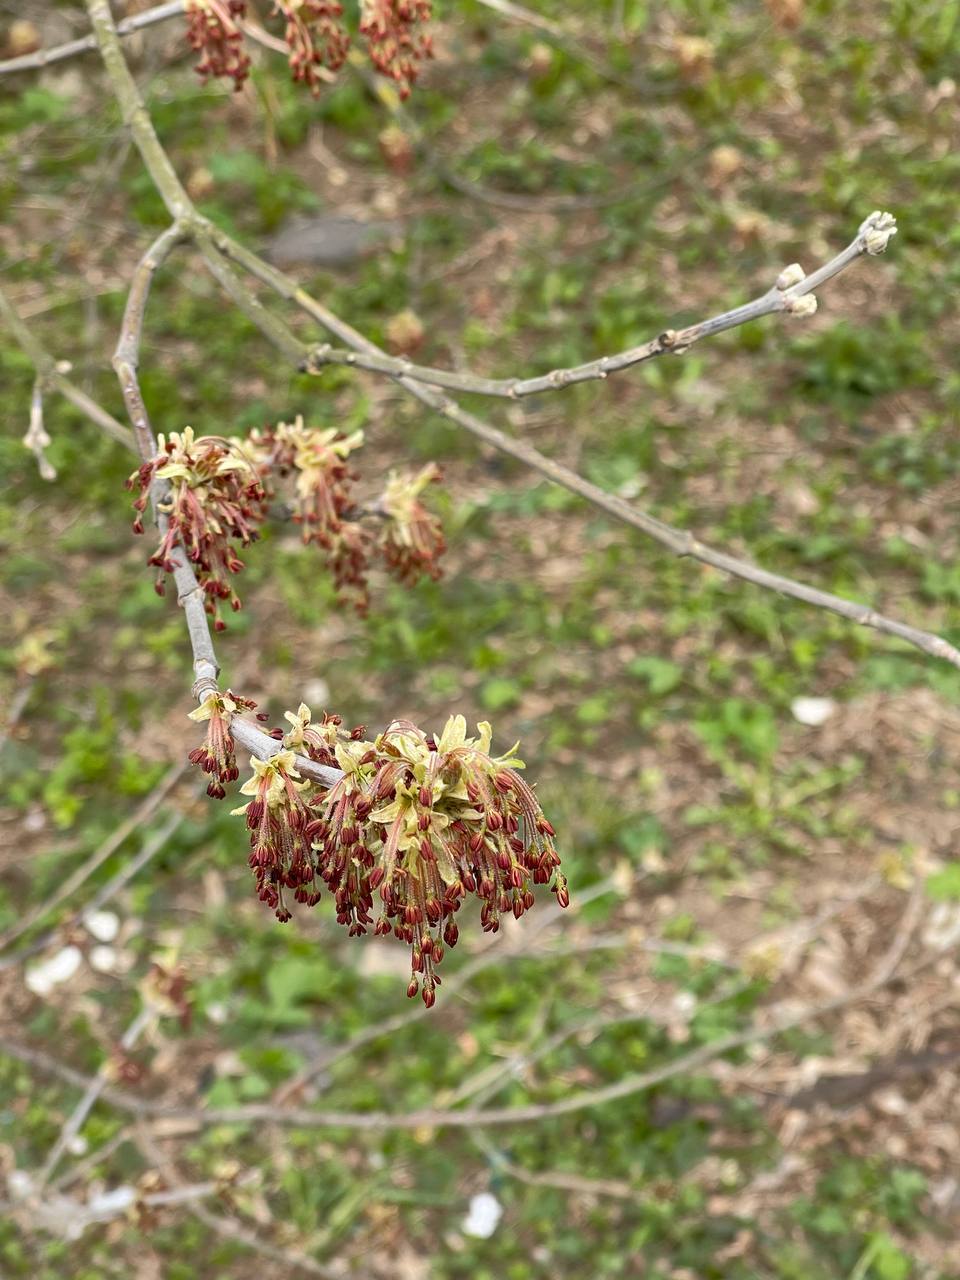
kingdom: Plantae
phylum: Tracheophyta
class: Magnoliopsida
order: Sapindales
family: Sapindaceae
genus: Acer
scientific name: Acer negundo
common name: Ashleaf maple
